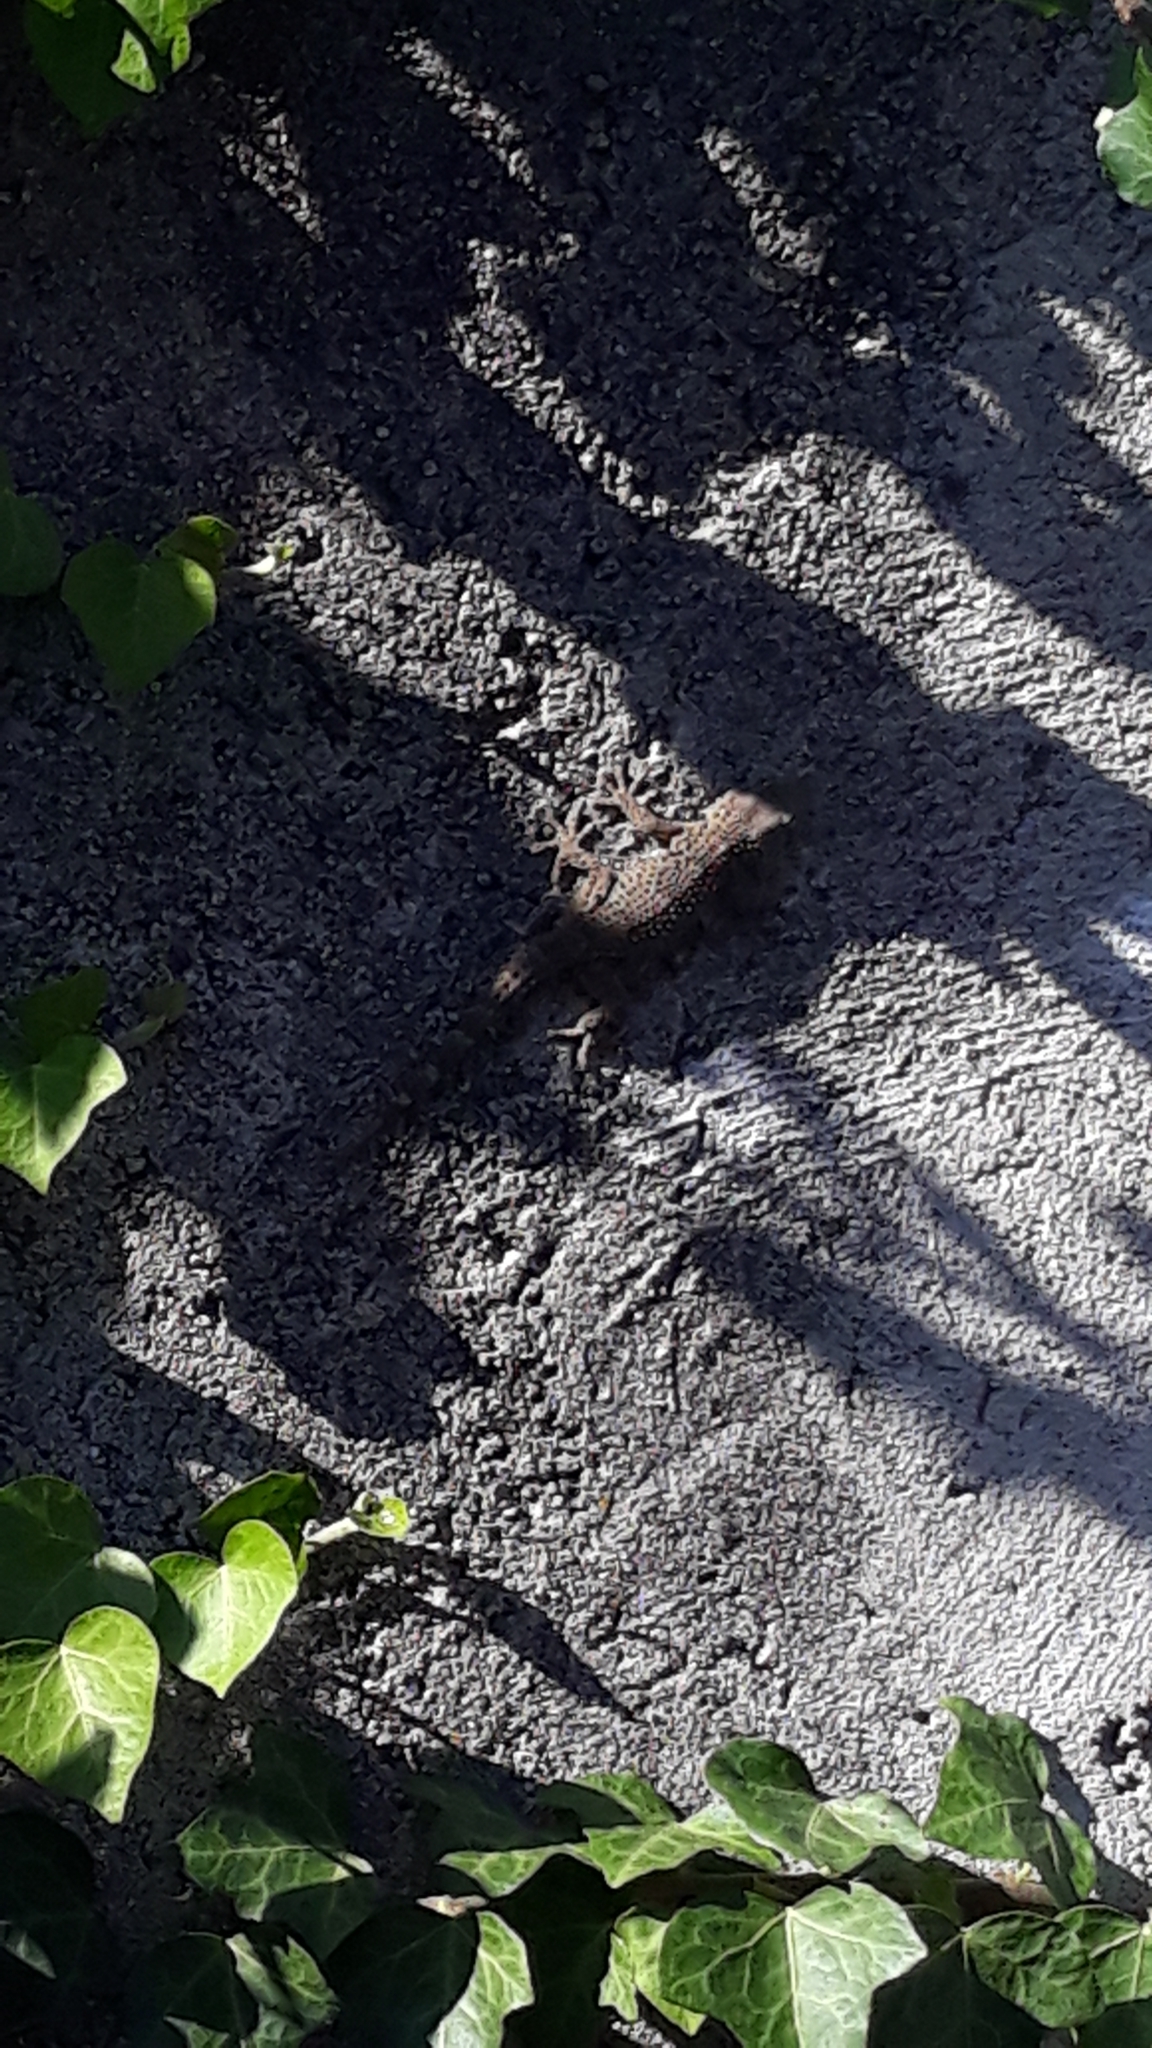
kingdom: Animalia
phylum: Chordata
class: Squamata
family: Phyllodactylidae
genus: Tarentola
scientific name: Tarentola mauritanica
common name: Moorish gecko
